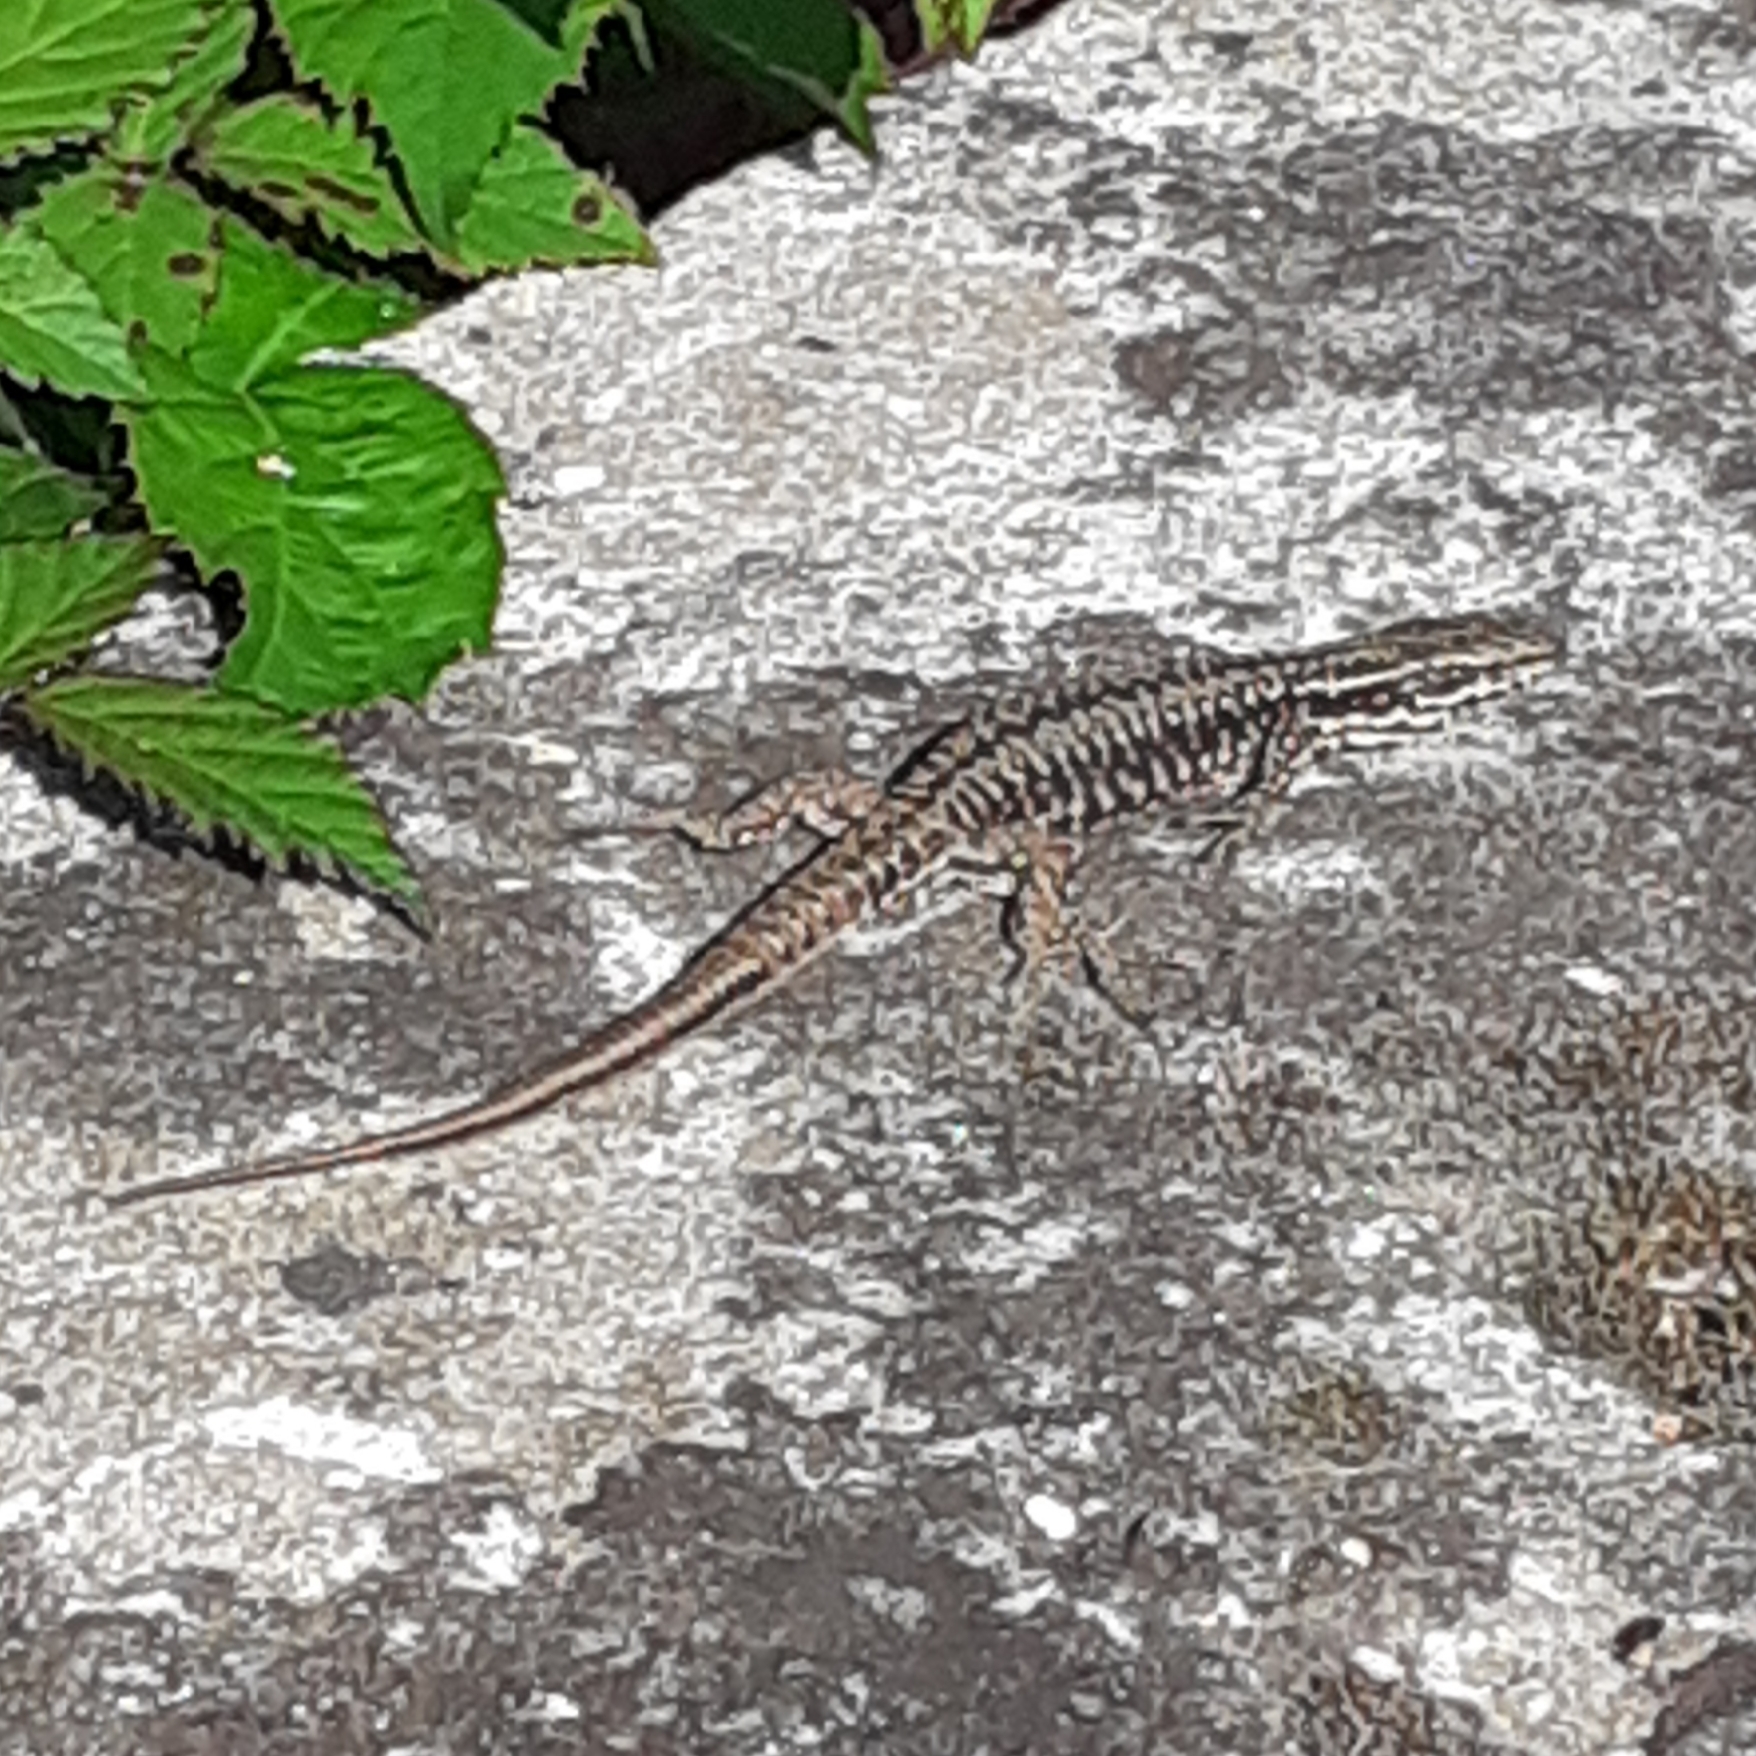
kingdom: Animalia
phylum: Chordata
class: Squamata
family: Lacertidae
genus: Podarcis
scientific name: Podarcis muralis
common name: Common wall lizard
